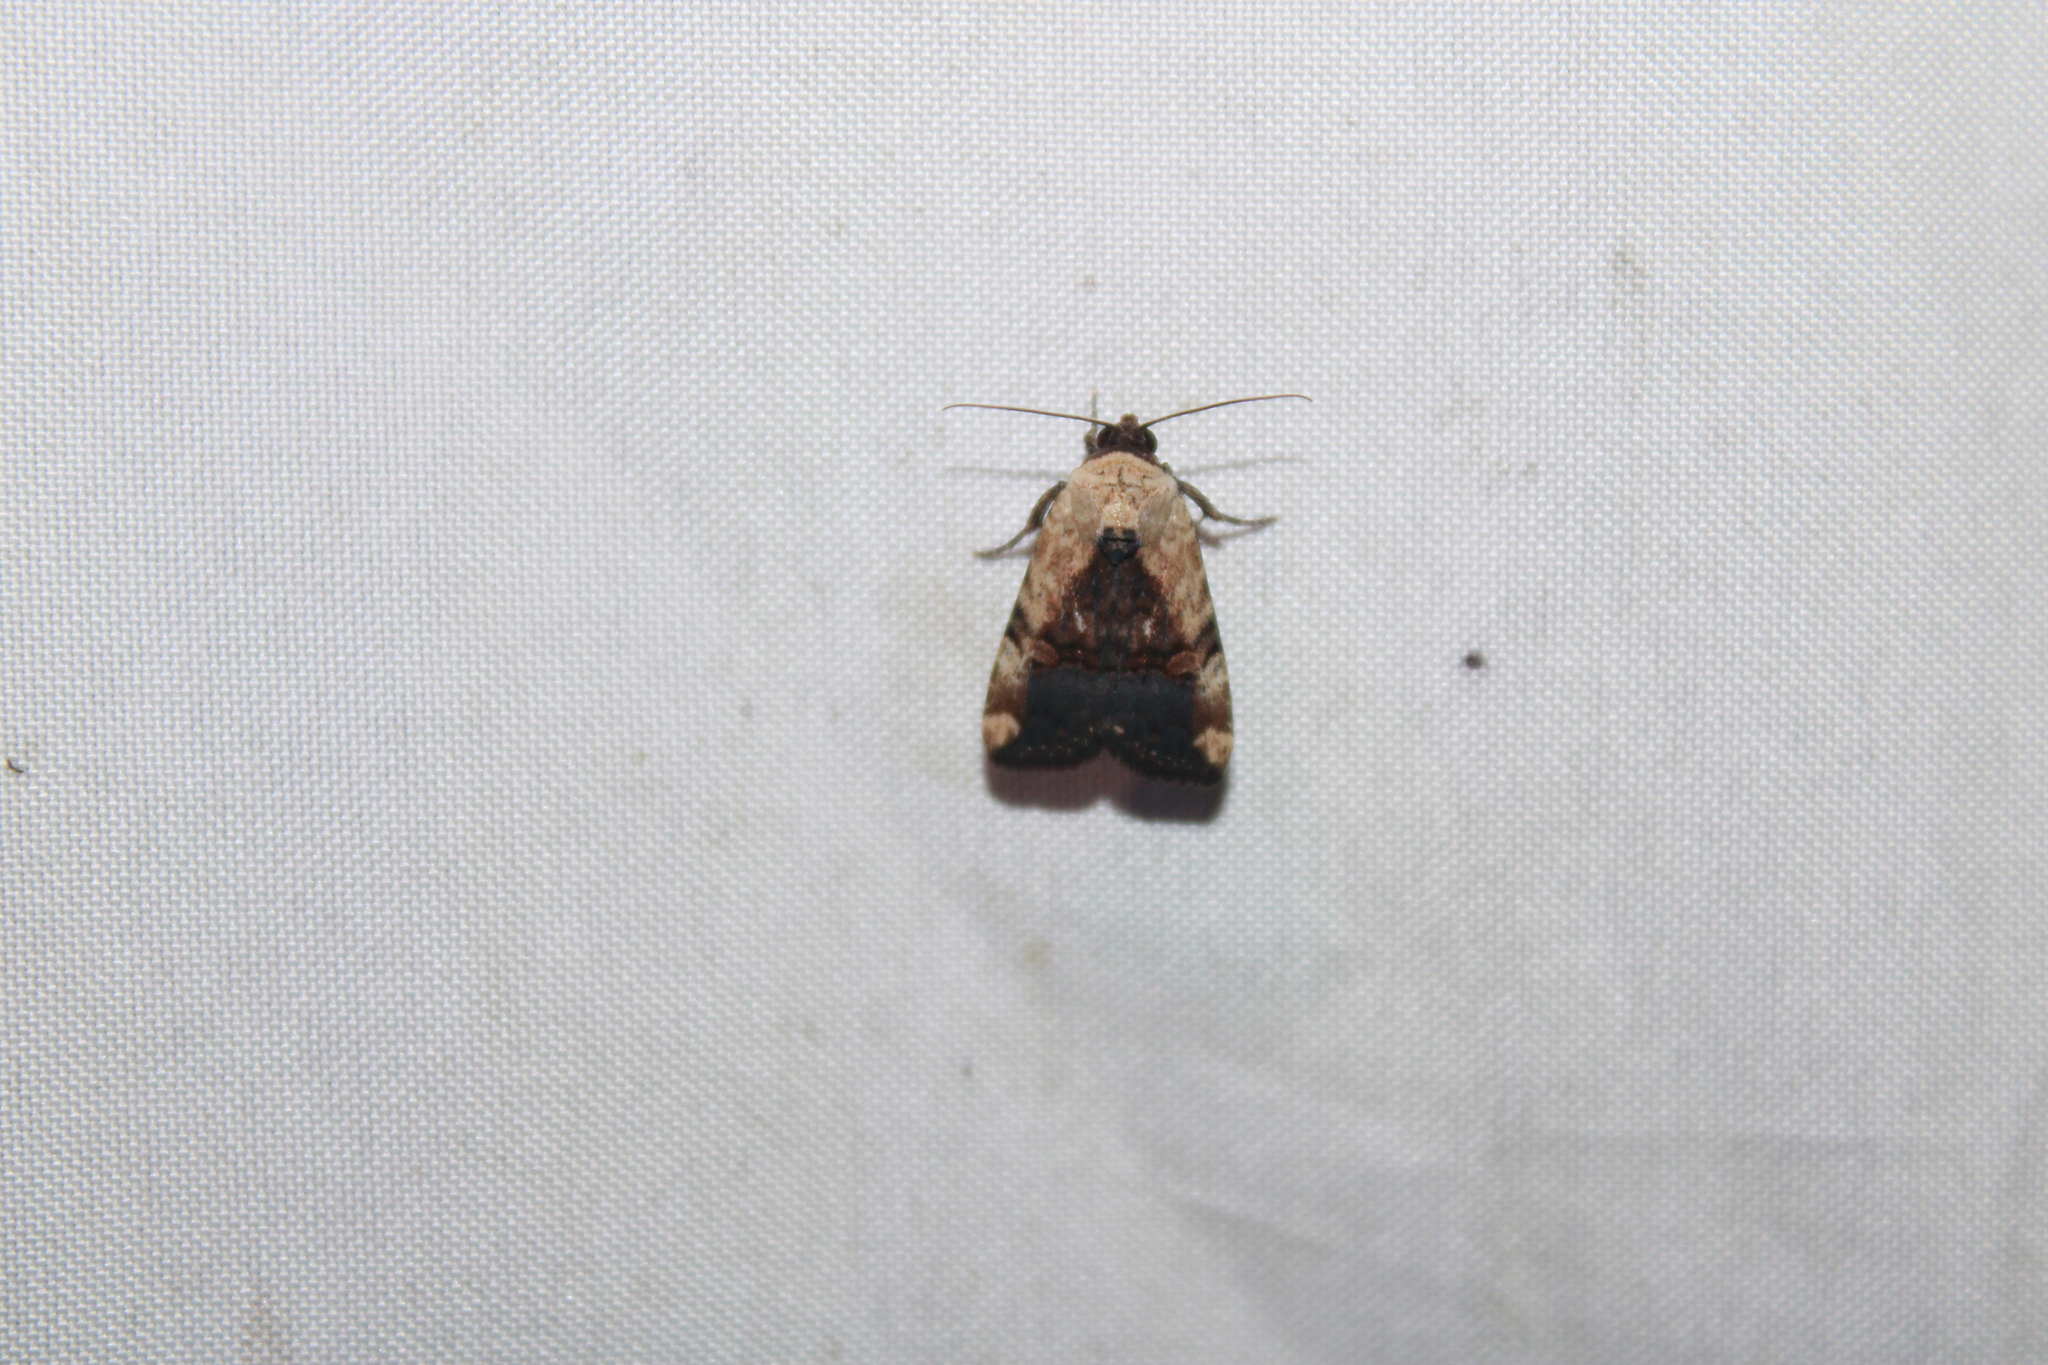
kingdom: Animalia
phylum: Arthropoda
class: Insecta
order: Lepidoptera
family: Noctuidae
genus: Elaphria
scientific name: Elaphria agrotina
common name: Agrotina midget
